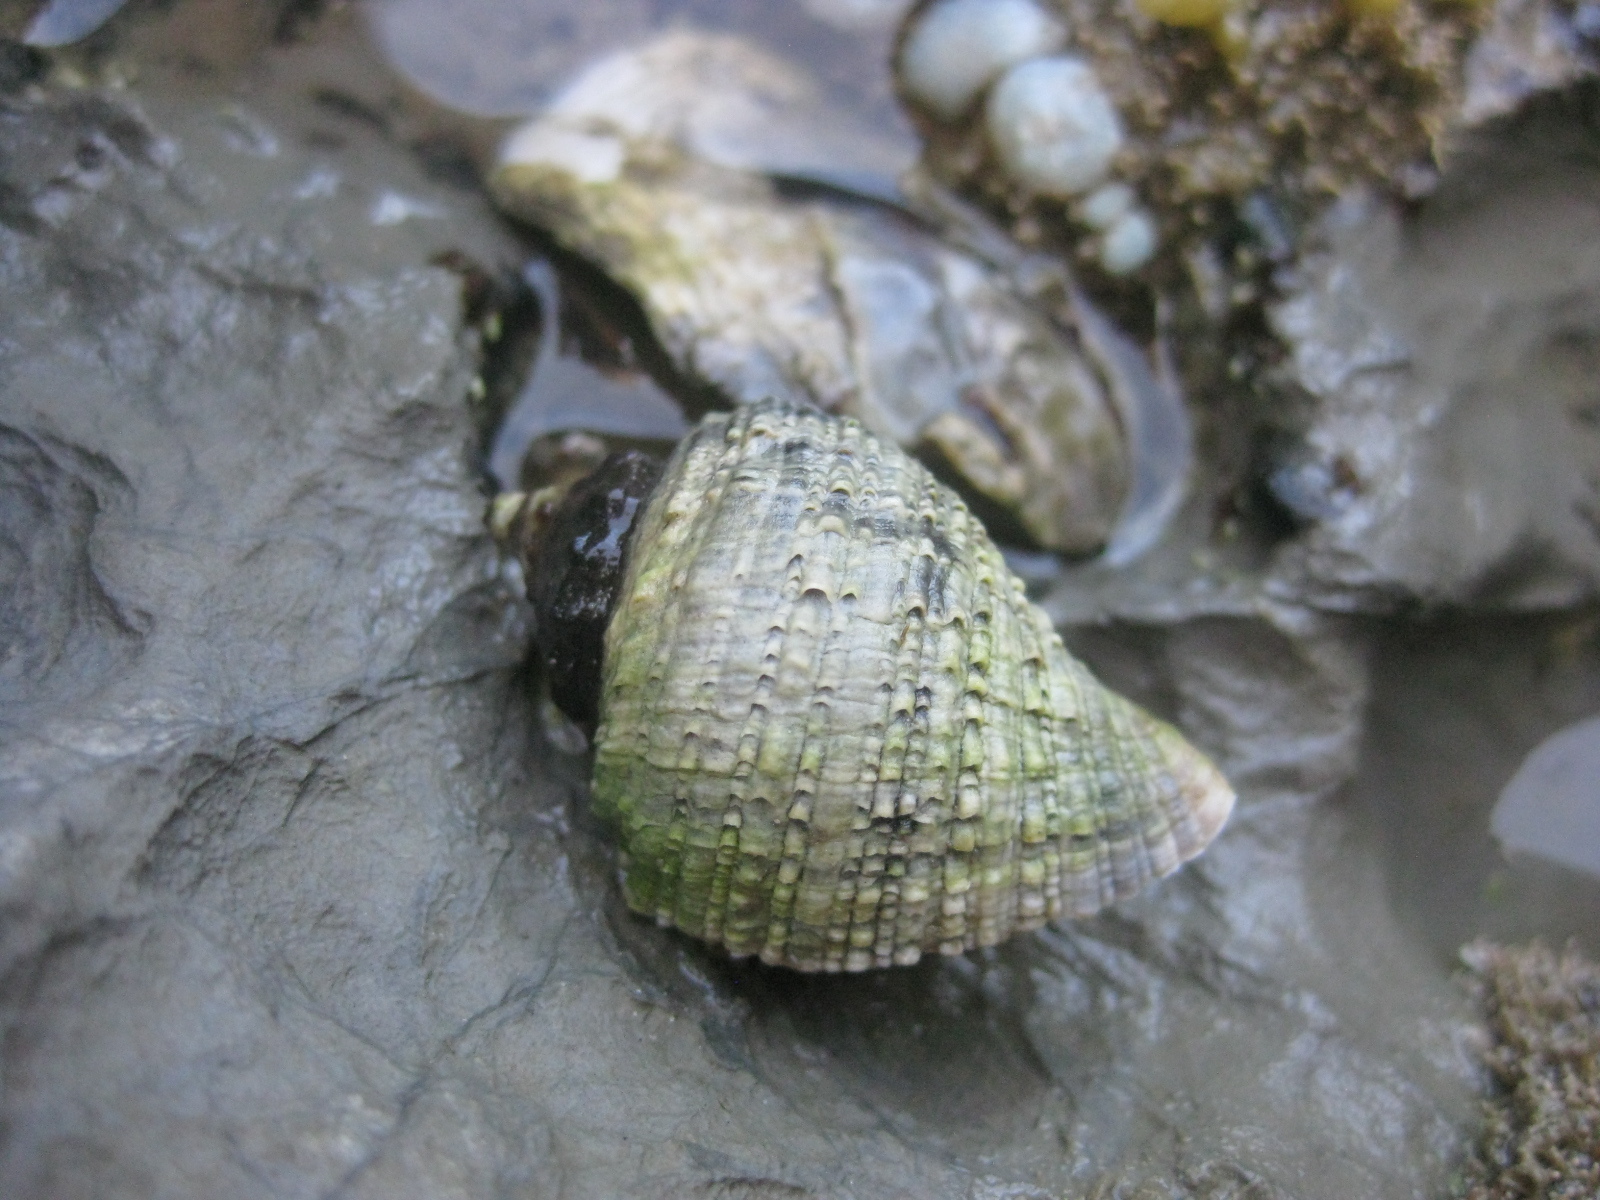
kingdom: Animalia
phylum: Mollusca
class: Gastropoda
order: Neogastropoda
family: Muricidae
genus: Haustrum
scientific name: Haustrum haustorium
